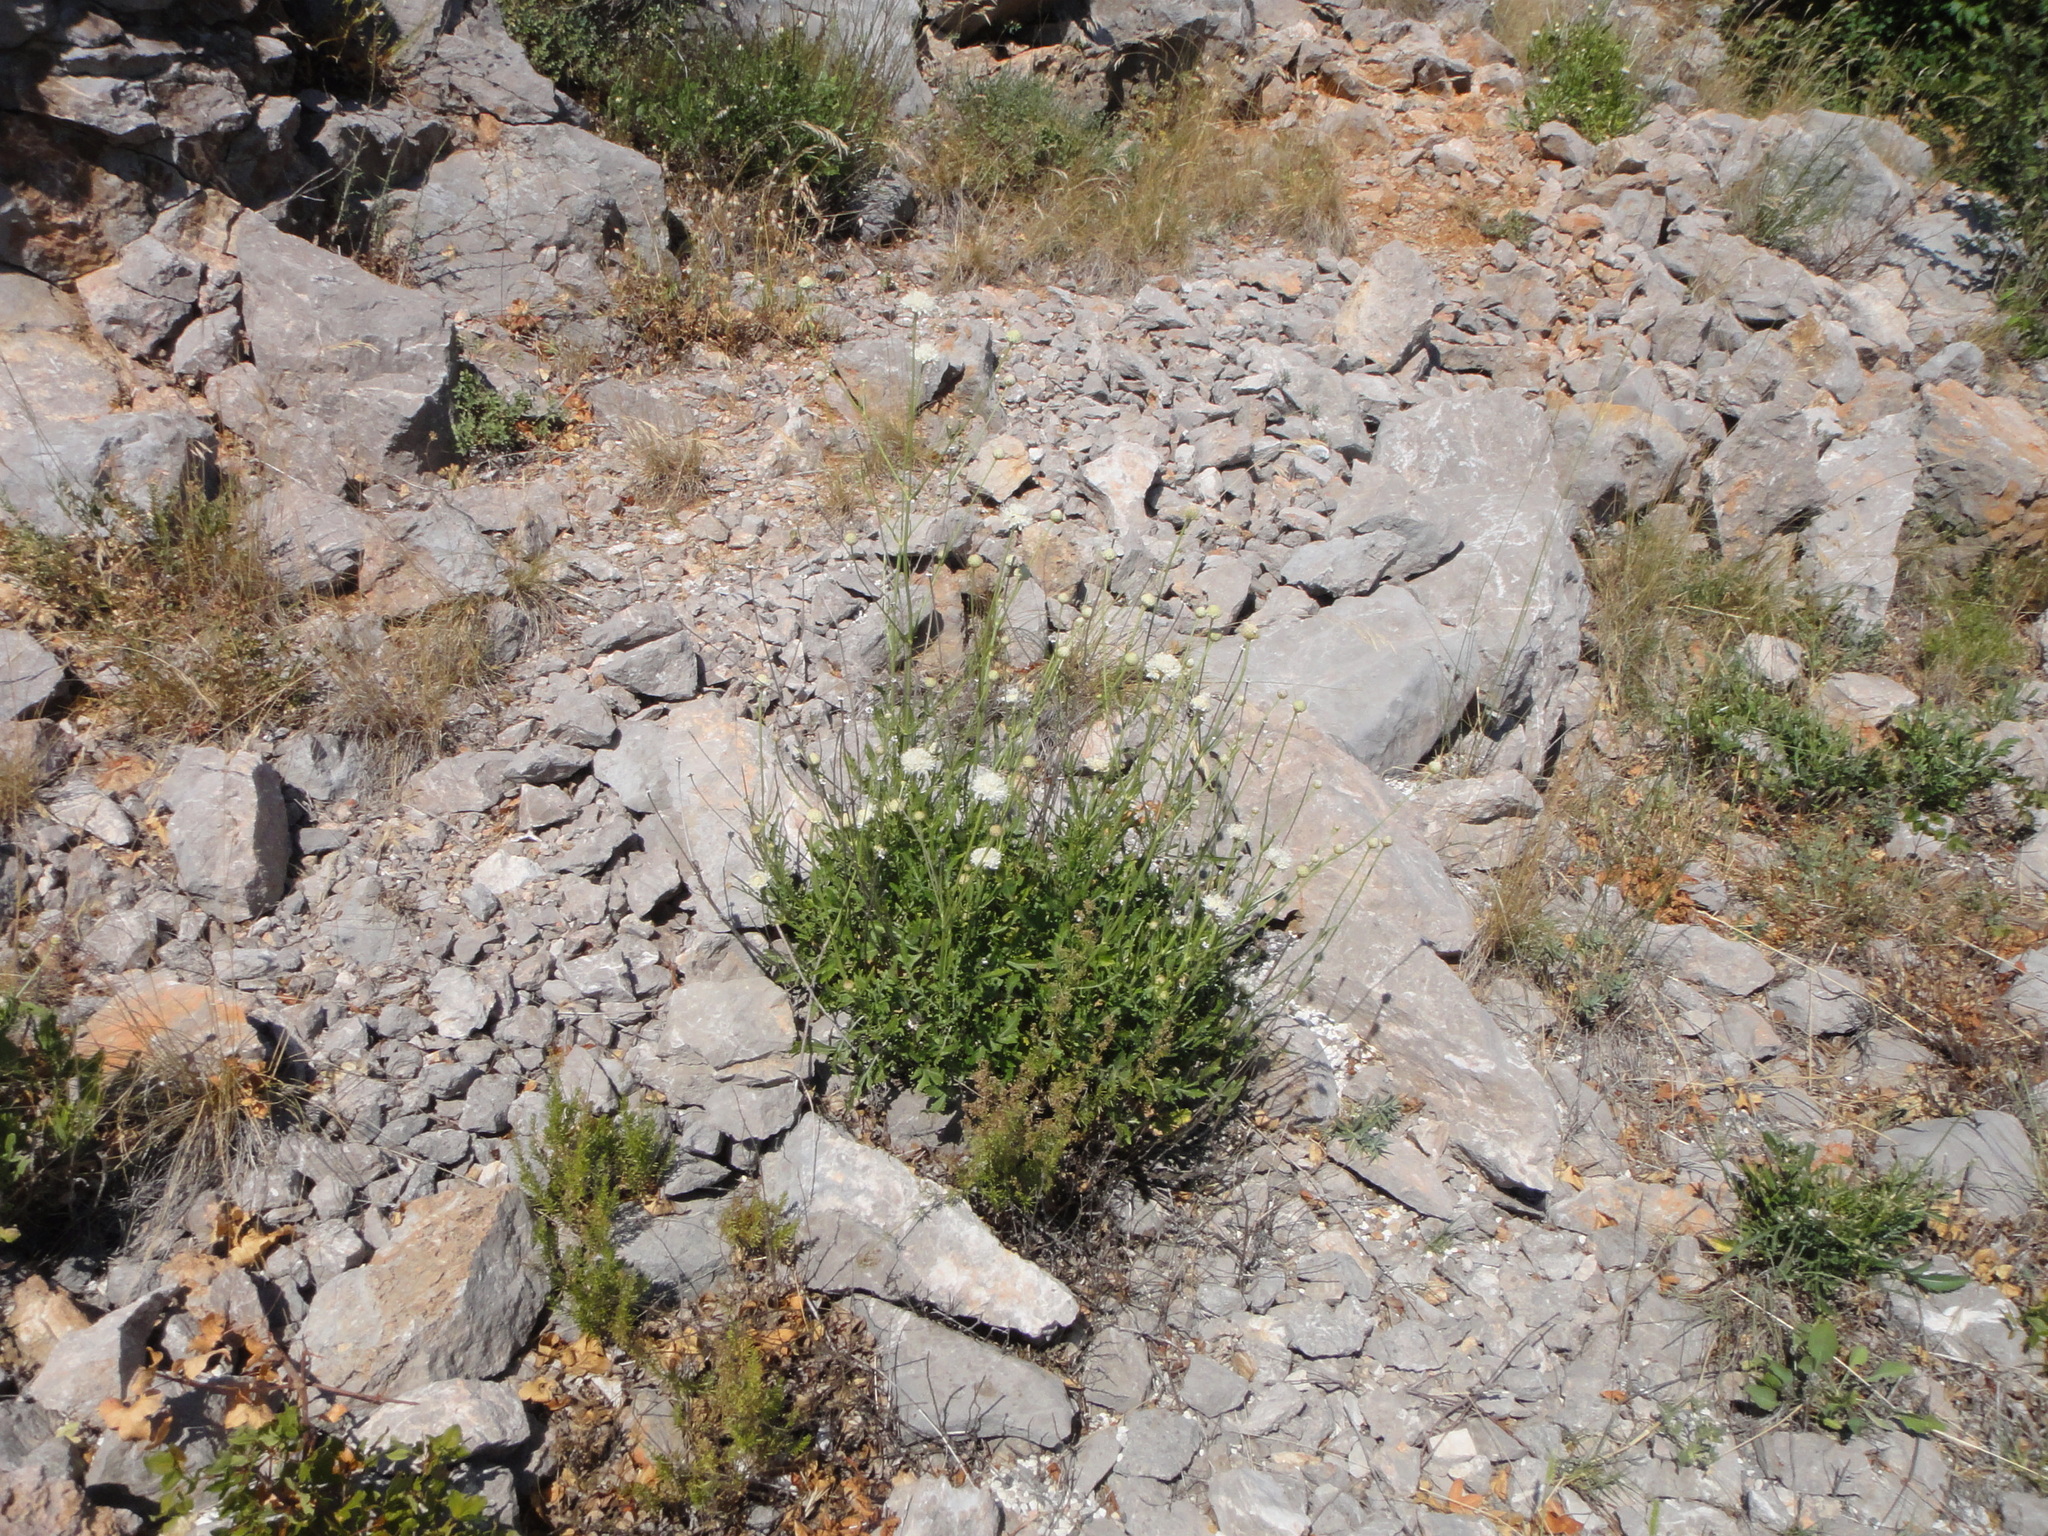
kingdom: Plantae
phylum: Tracheophyta
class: Magnoliopsida
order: Dipsacales
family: Caprifoliaceae
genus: Cephalaria
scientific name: Cephalaria leucantha
